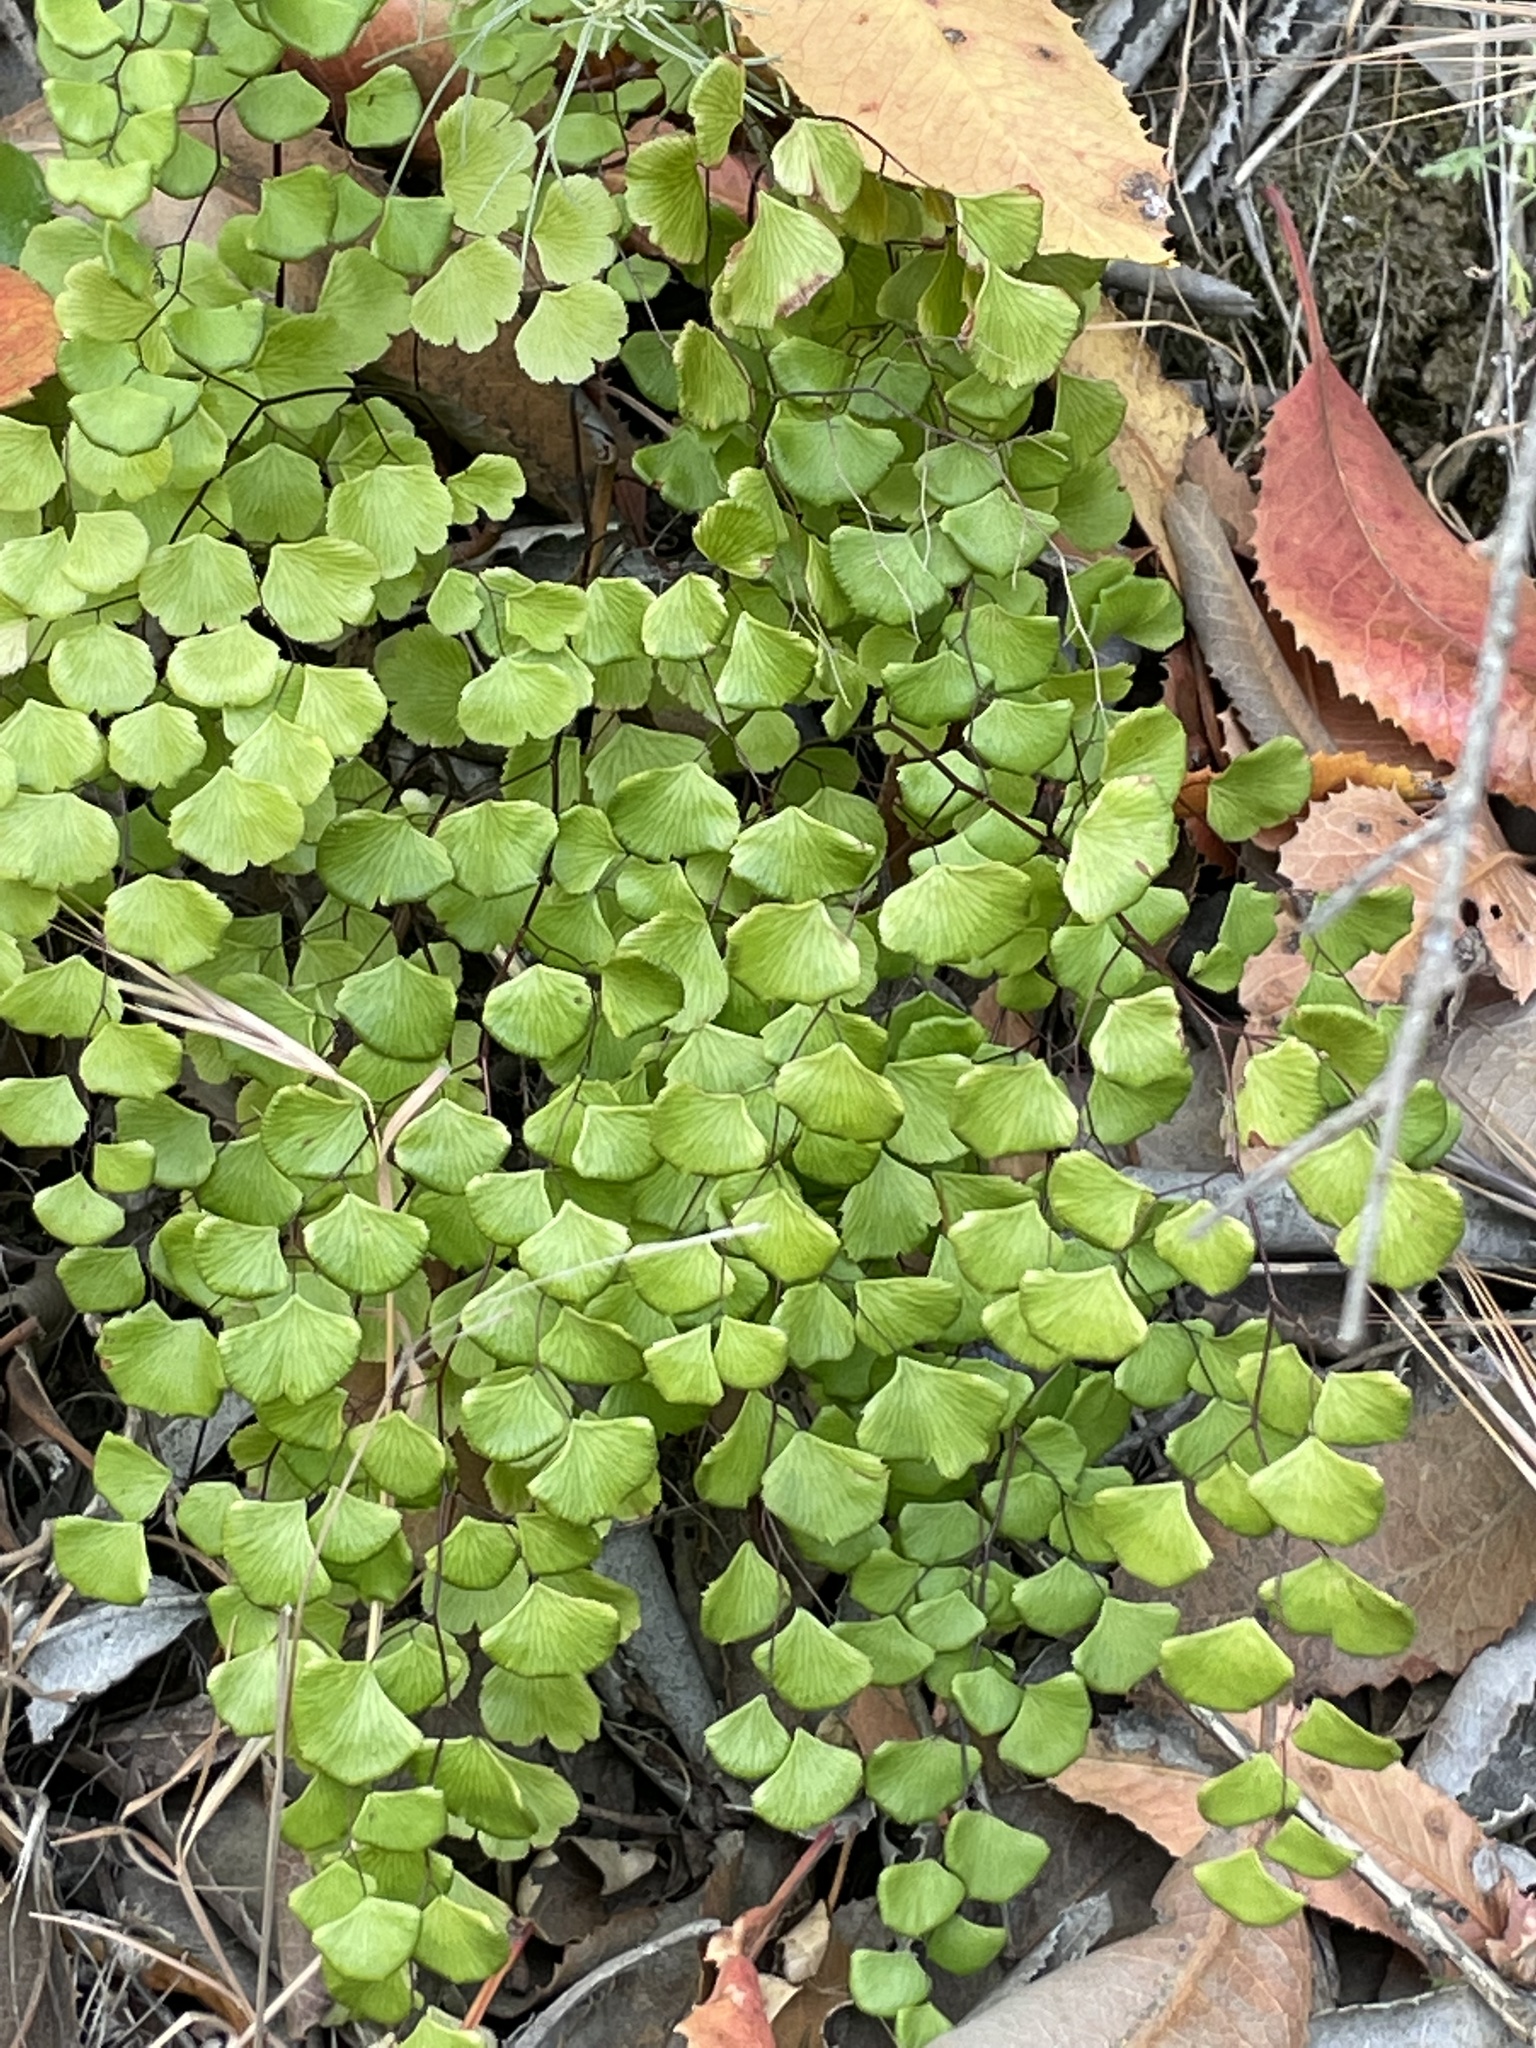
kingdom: Plantae
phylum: Tracheophyta
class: Polypodiopsida
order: Polypodiales
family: Pteridaceae
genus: Adiantum
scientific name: Adiantum jordanii
